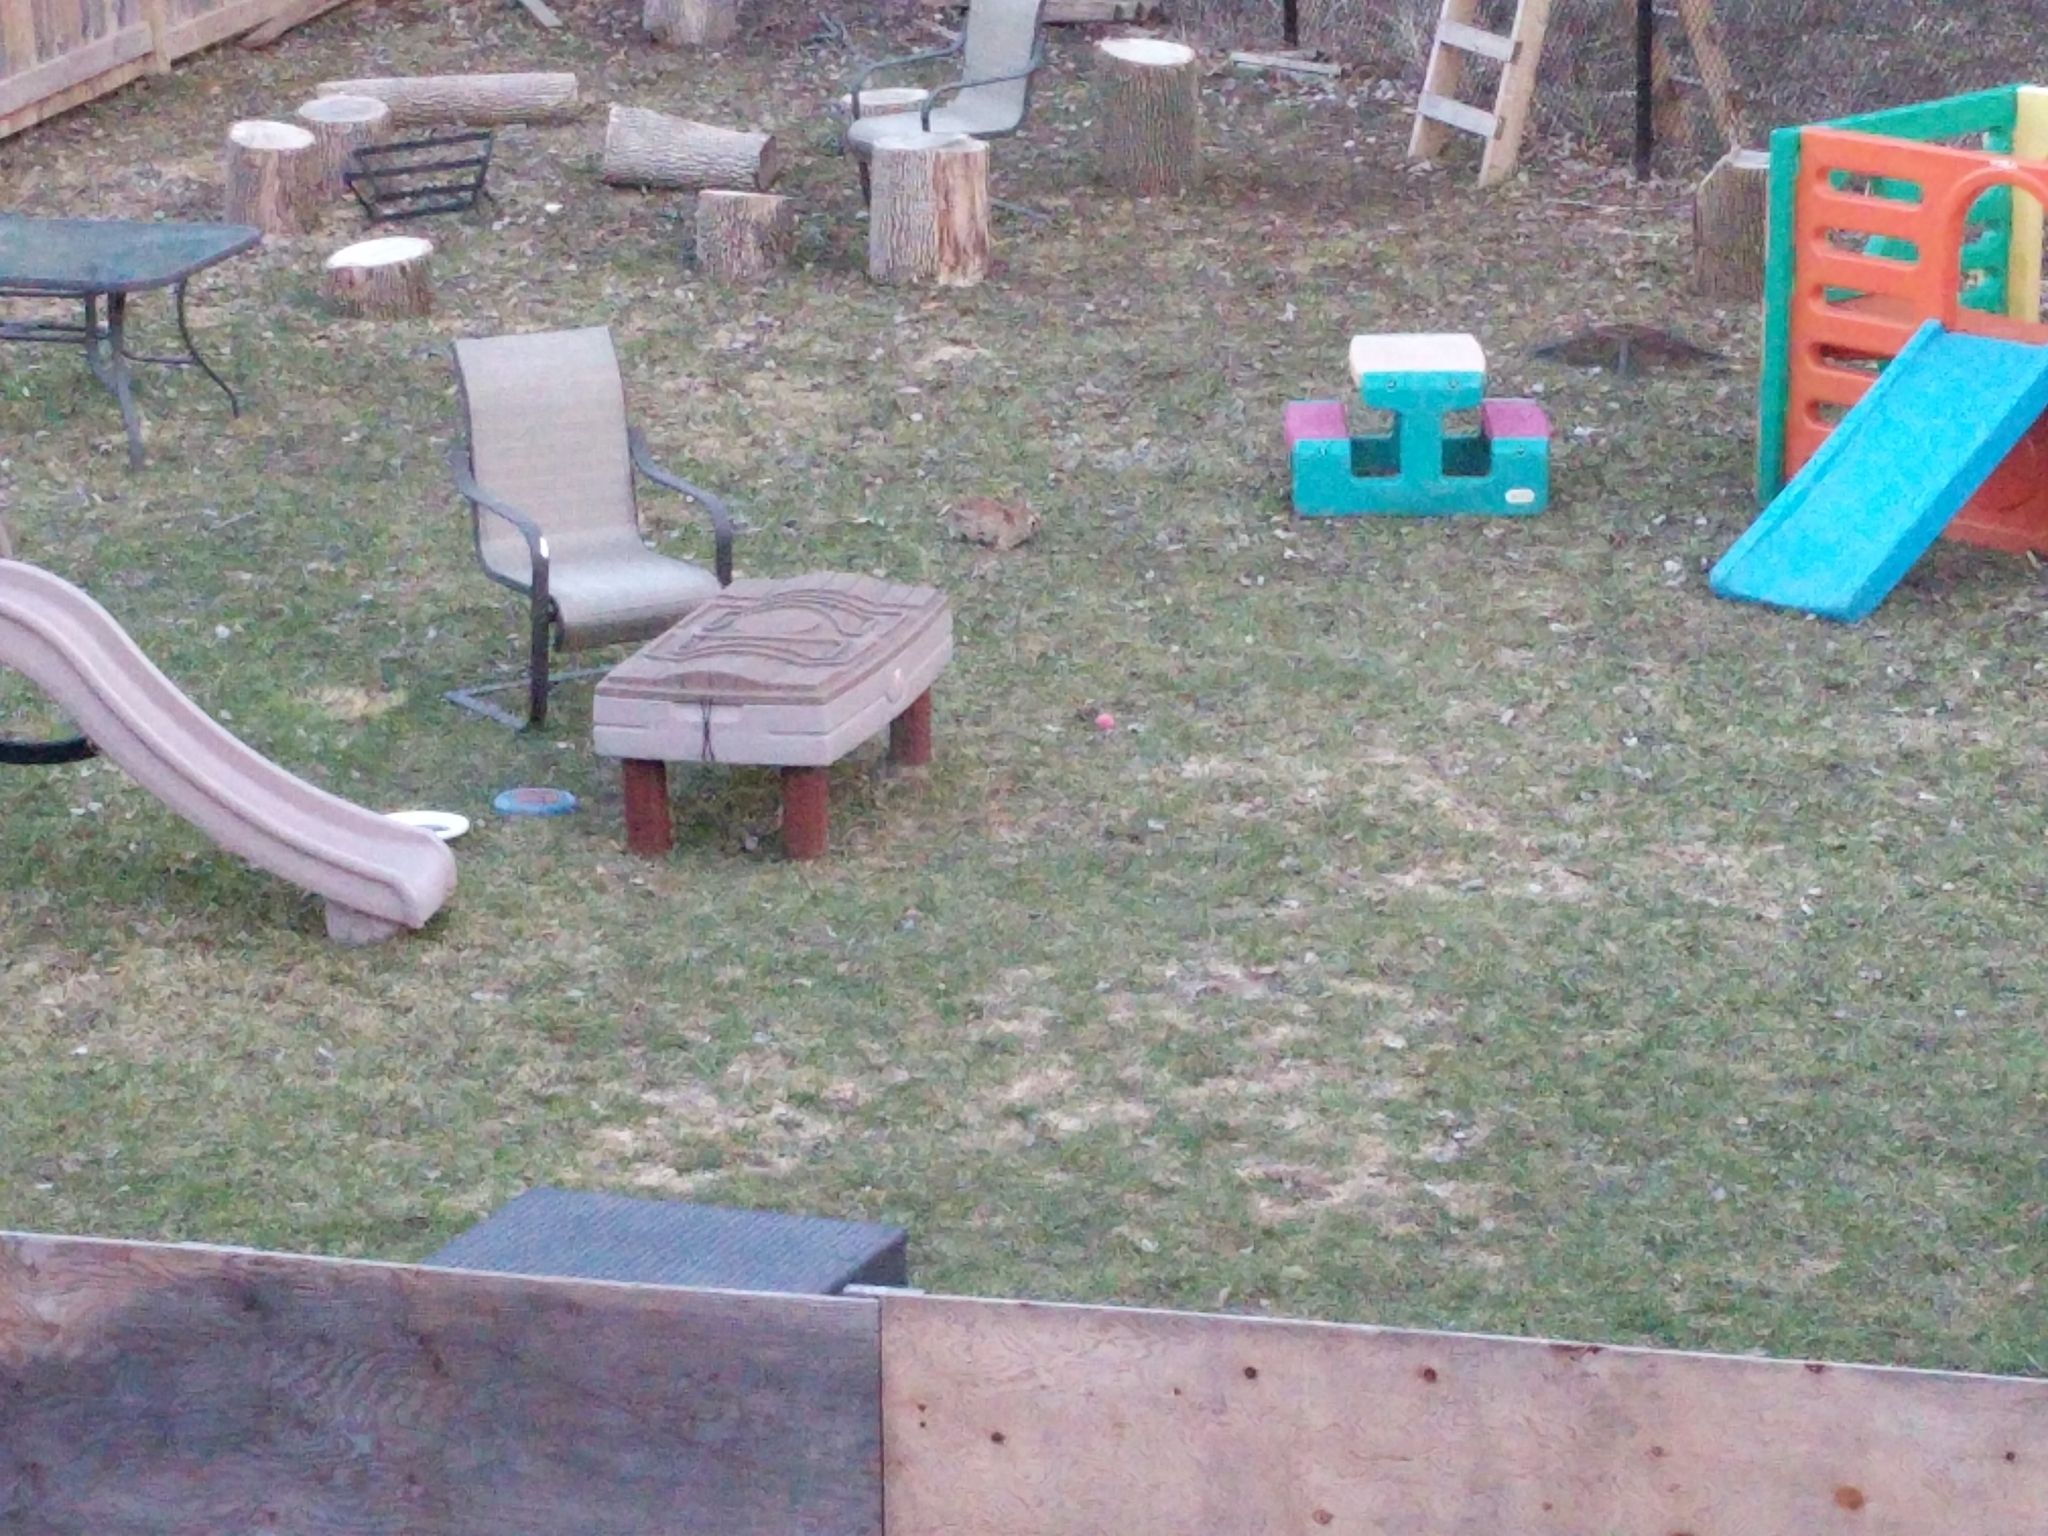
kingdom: Animalia
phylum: Chordata
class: Mammalia
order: Lagomorpha
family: Leporidae
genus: Sylvilagus
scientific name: Sylvilagus floridanus
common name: Eastern cottontail
